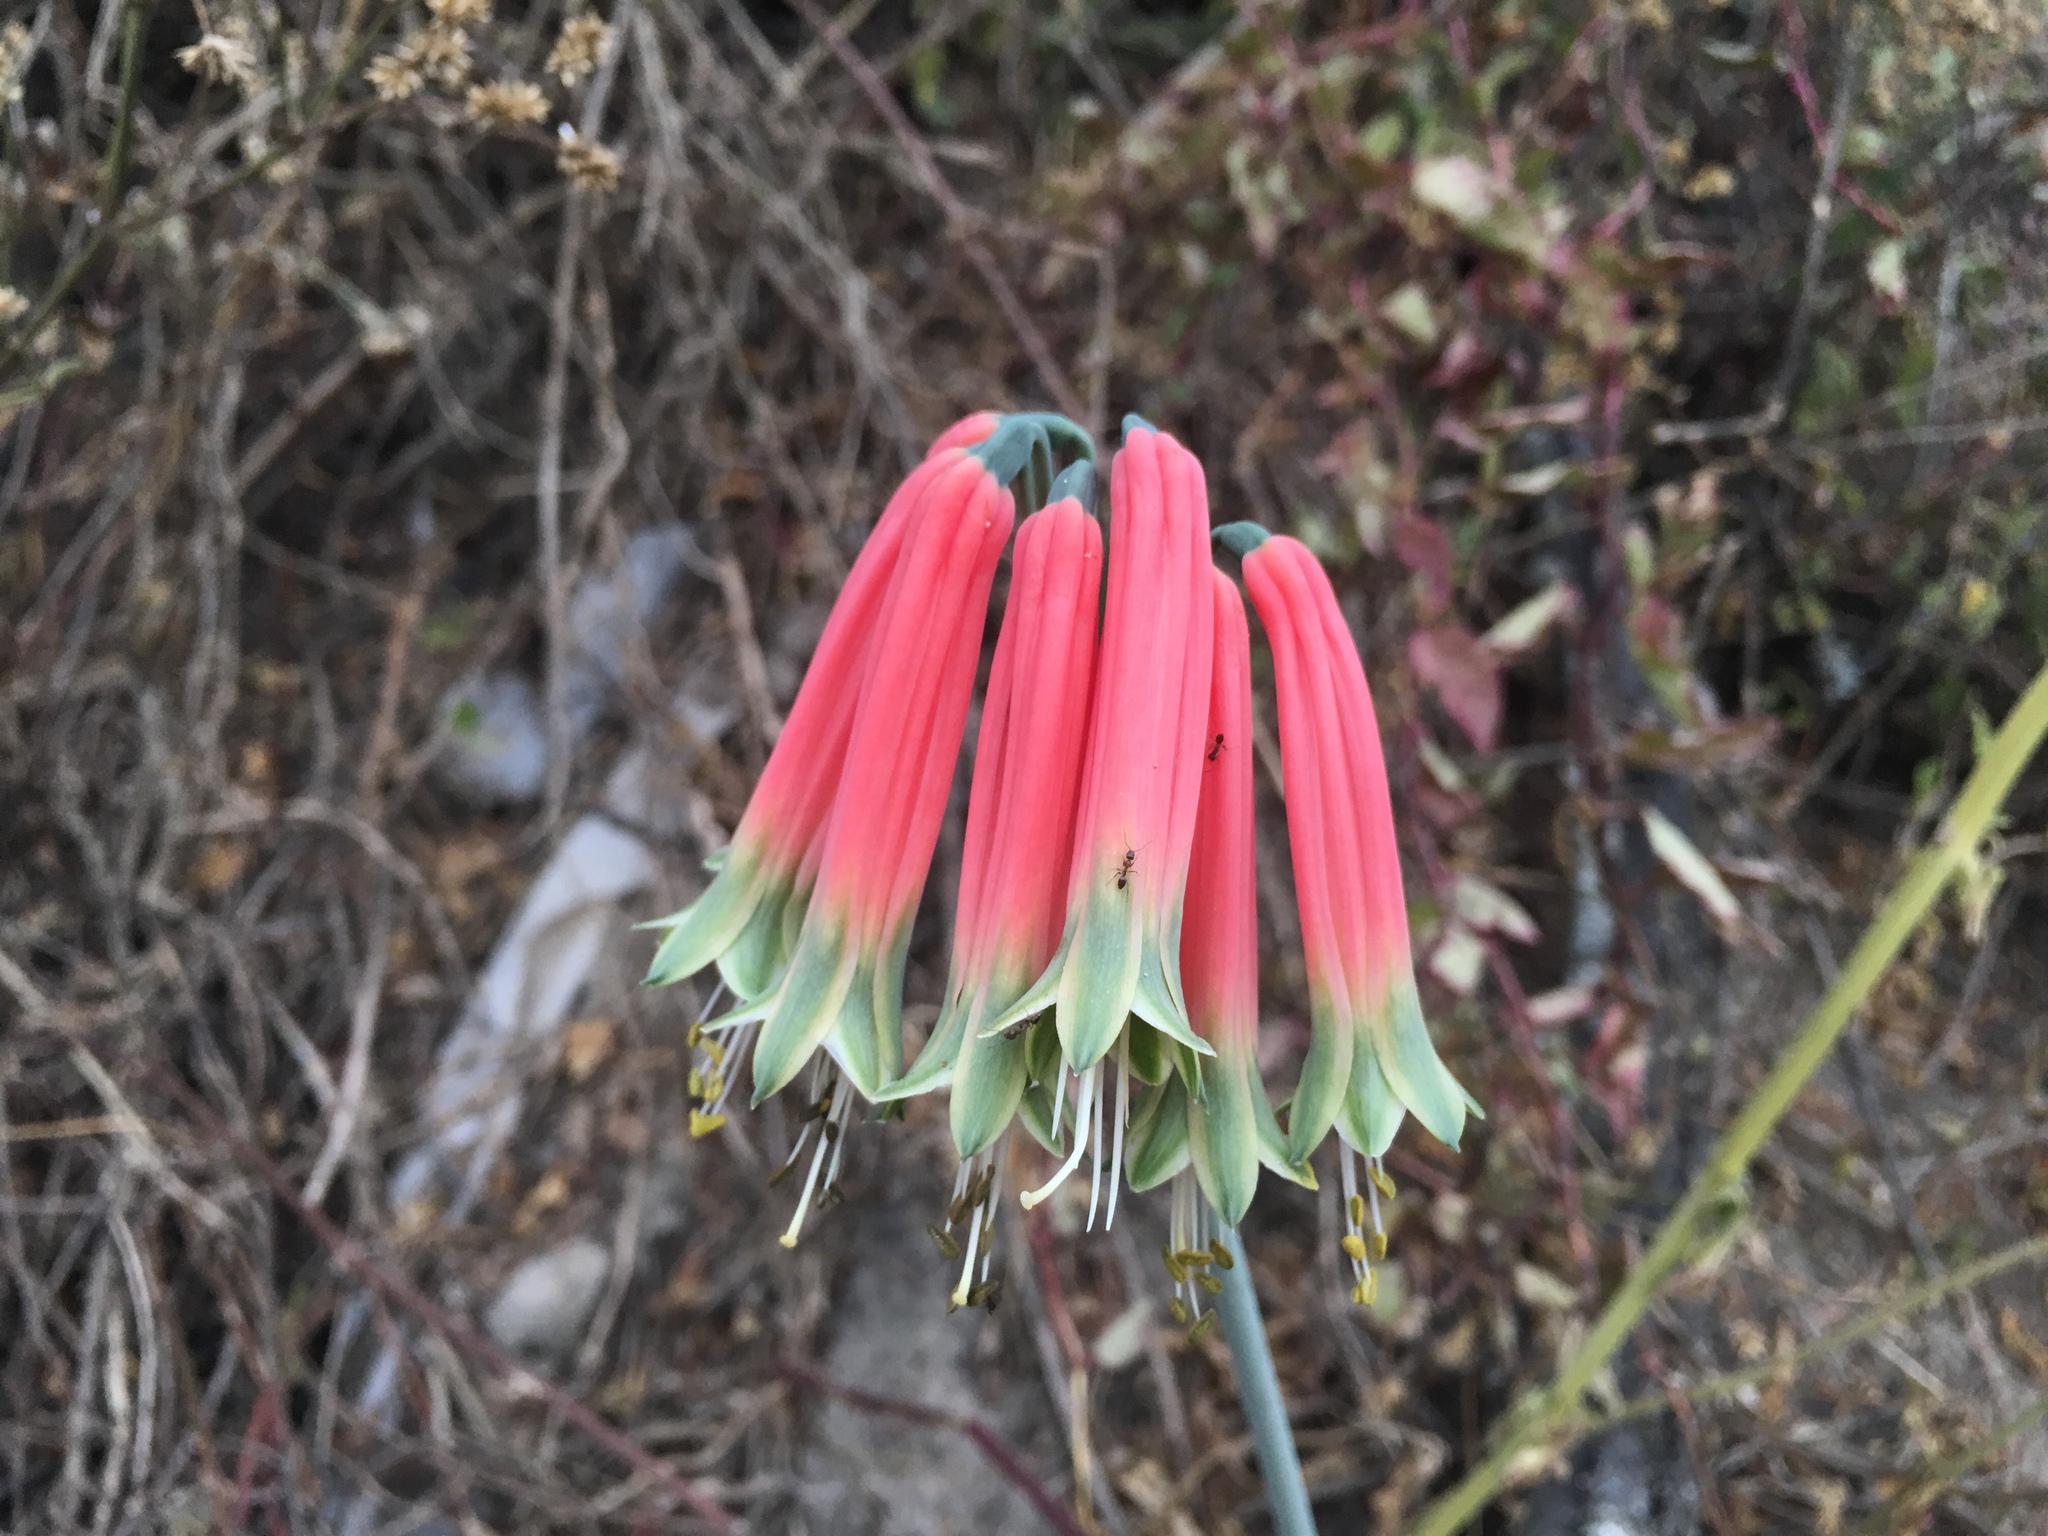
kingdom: Plantae
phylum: Tracheophyta
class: Liliopsida
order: Asparagales
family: Amaryllidaceae
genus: Phaedranassa
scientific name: Phaedranassa dubia
